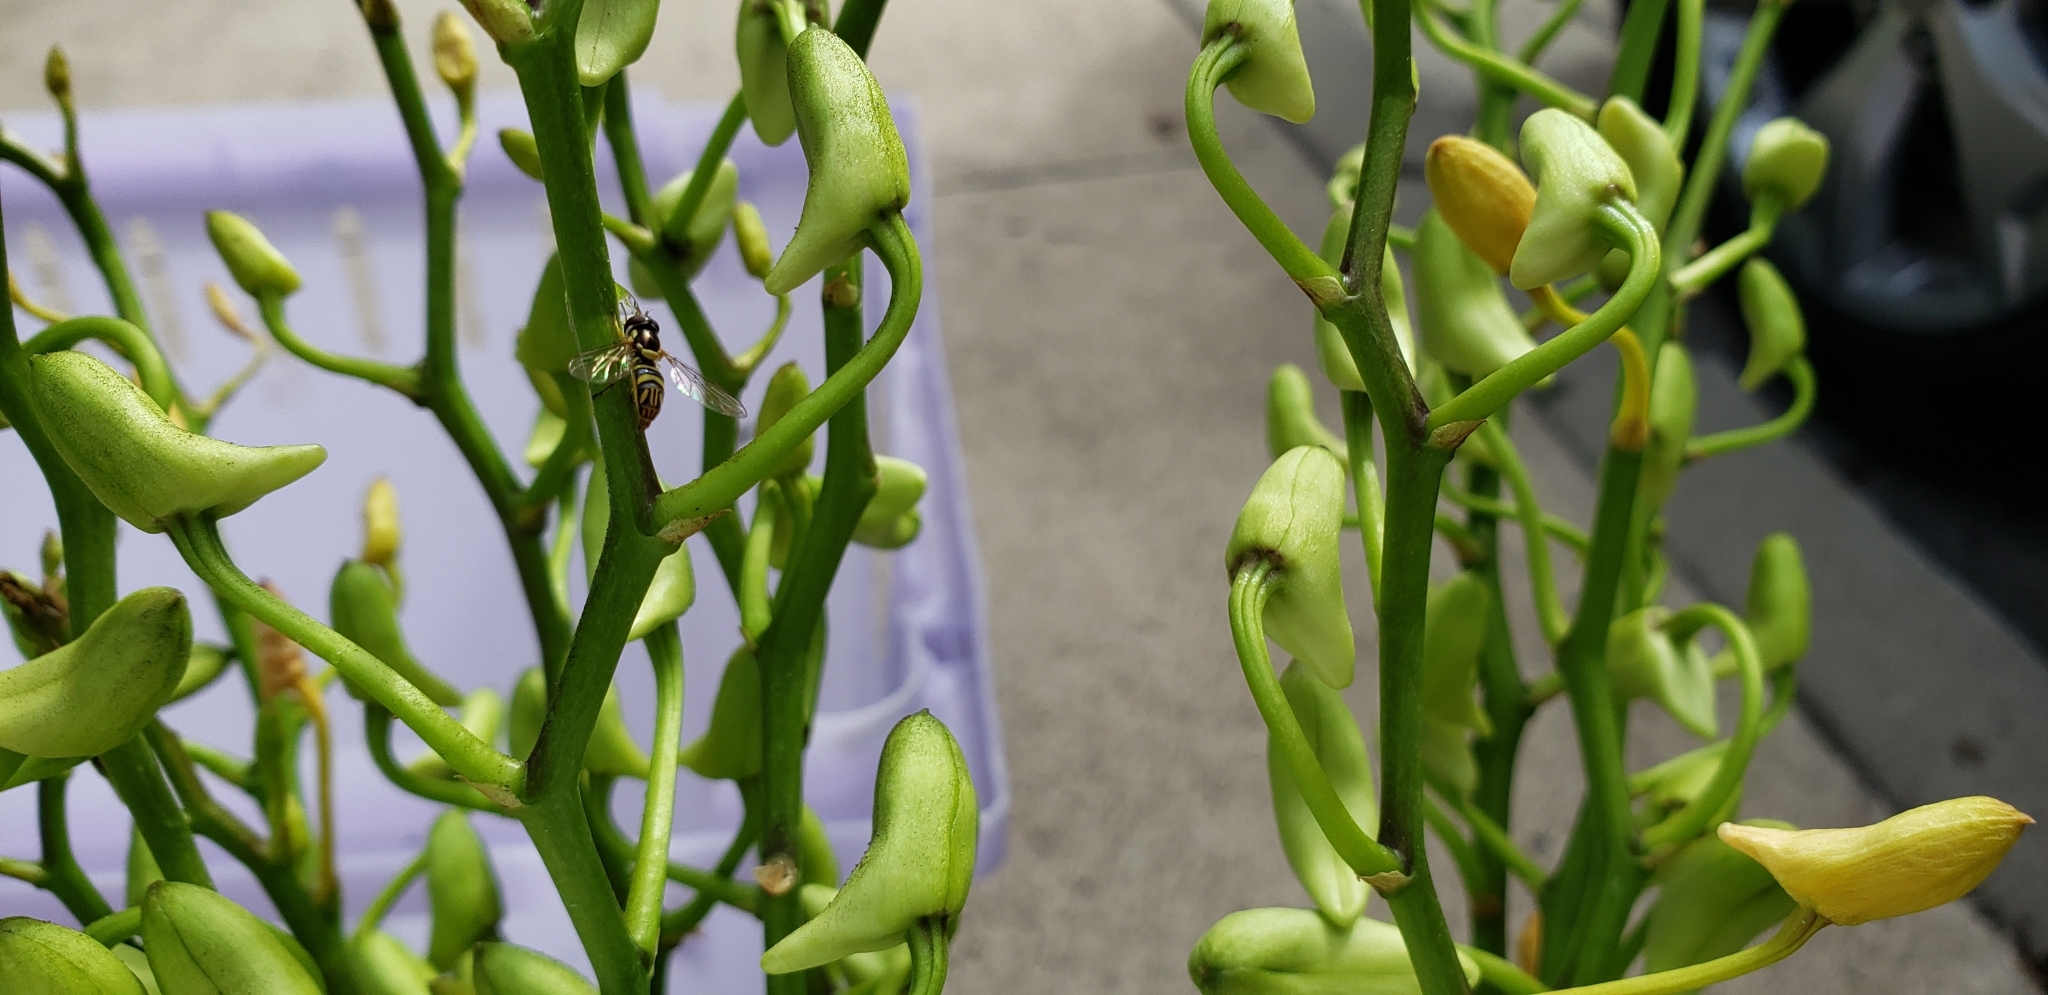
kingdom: Animalia
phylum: Arthropoda
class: Insecta
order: Diptera
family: Syrphidae
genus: Allograpta
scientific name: Allograpta obliqua
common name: Common oblique syrphid
